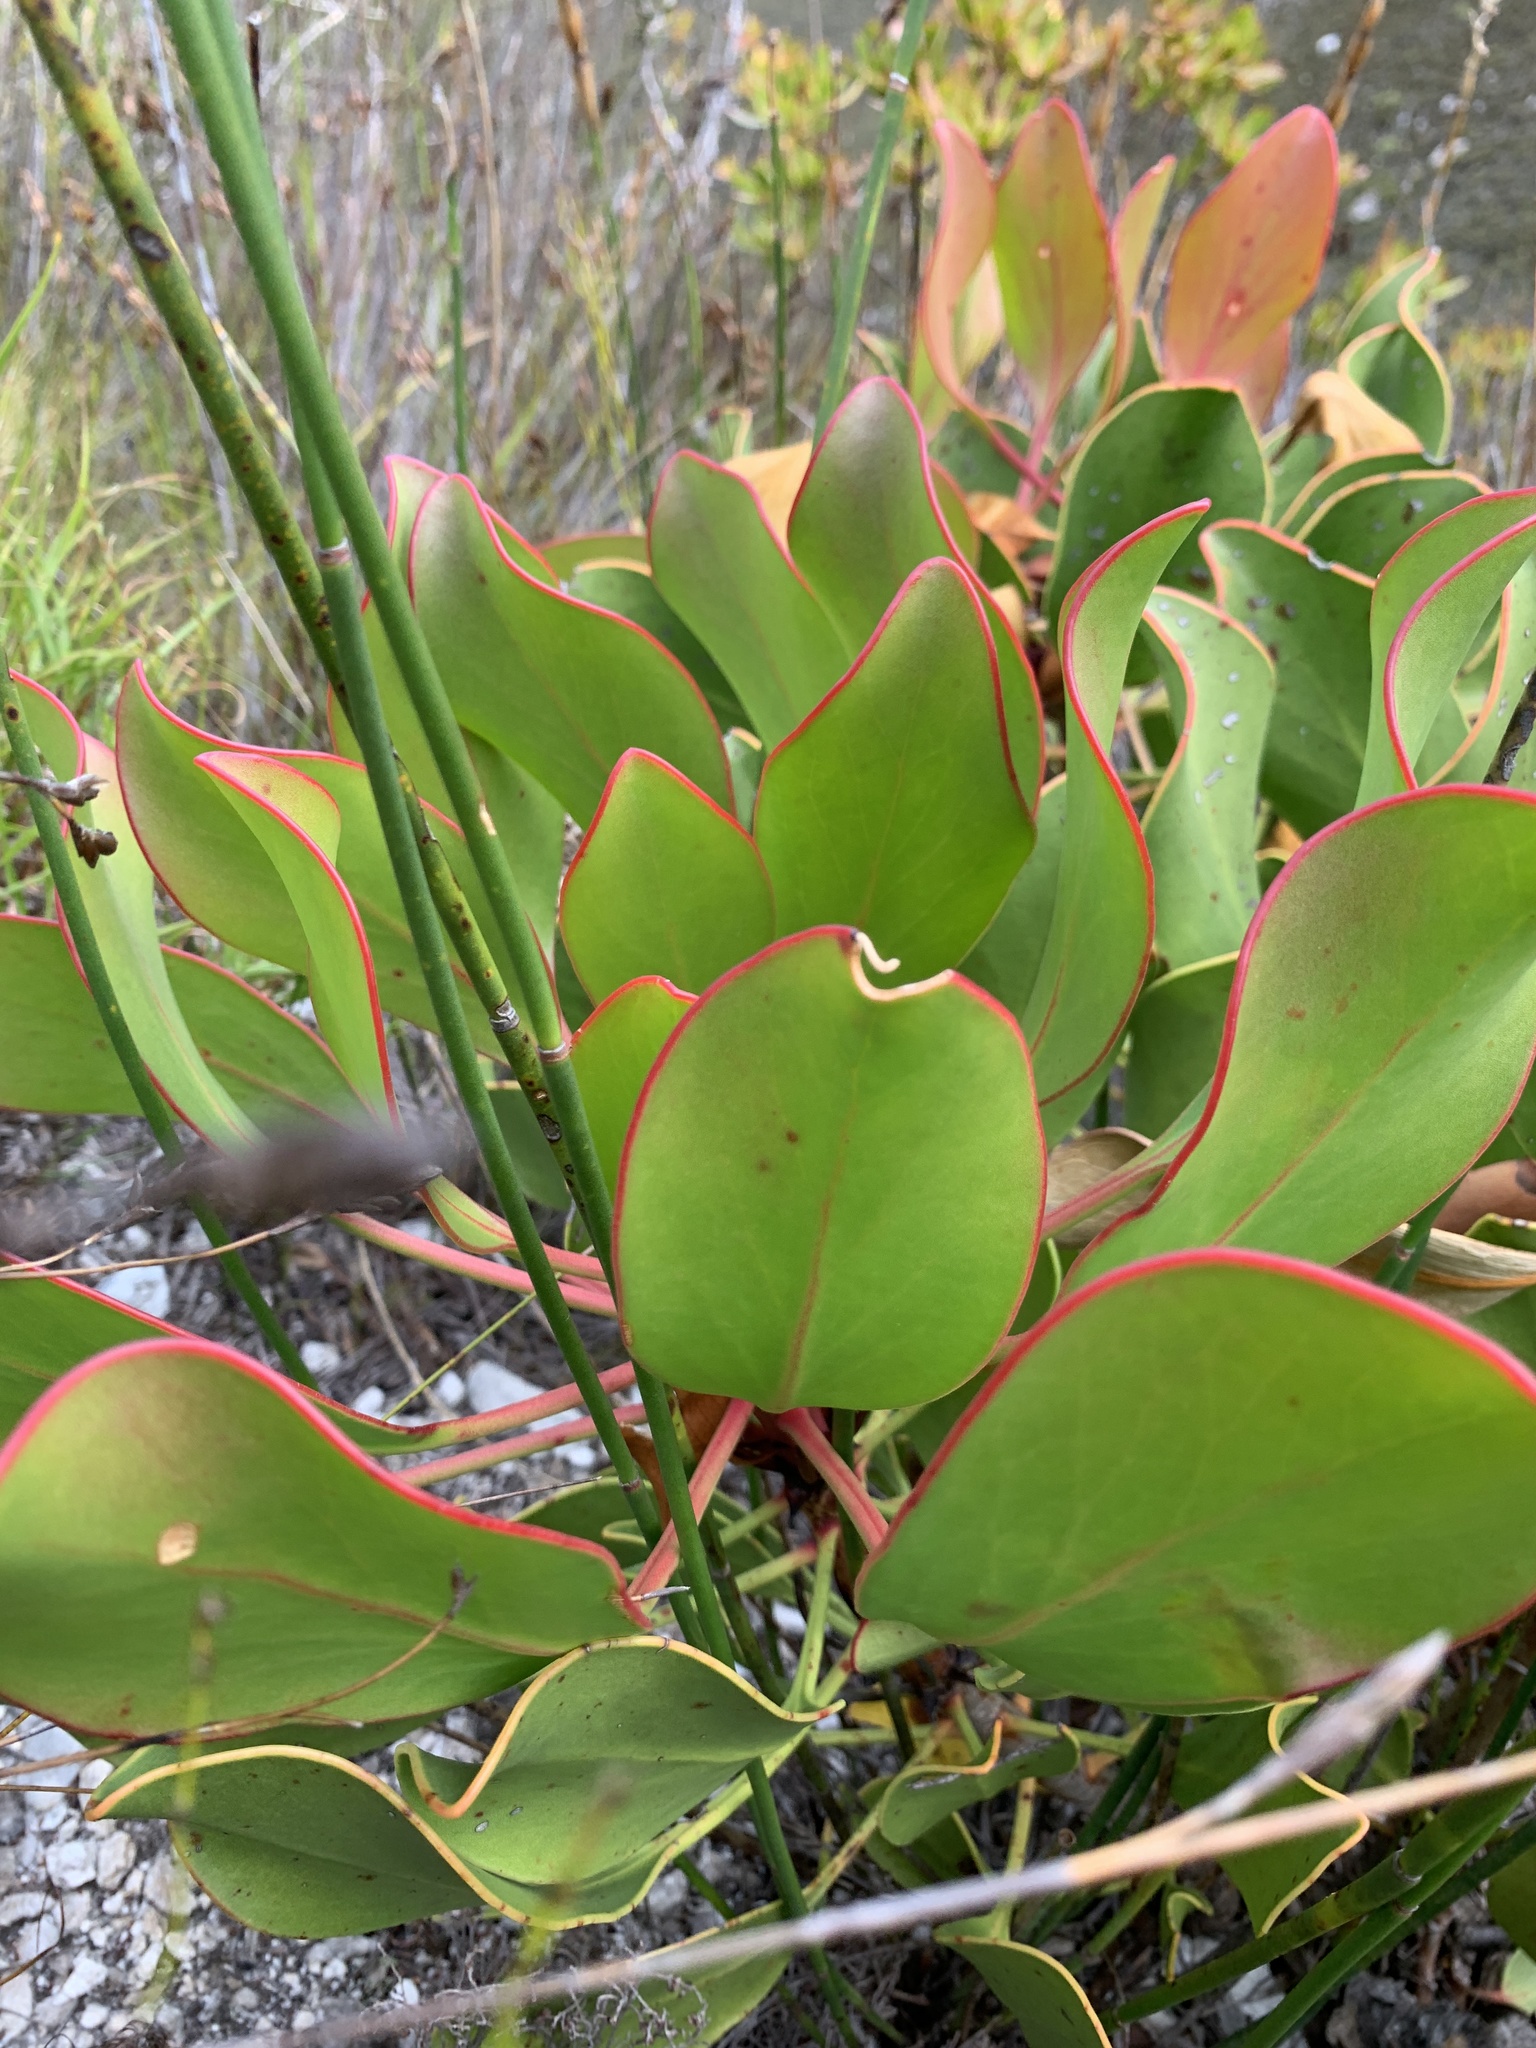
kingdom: Plantae
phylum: Tracheophyta
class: Magnoliopsida
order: Proteales
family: Proteaceae
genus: Protea
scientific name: Protea cynaroides
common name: King protea
